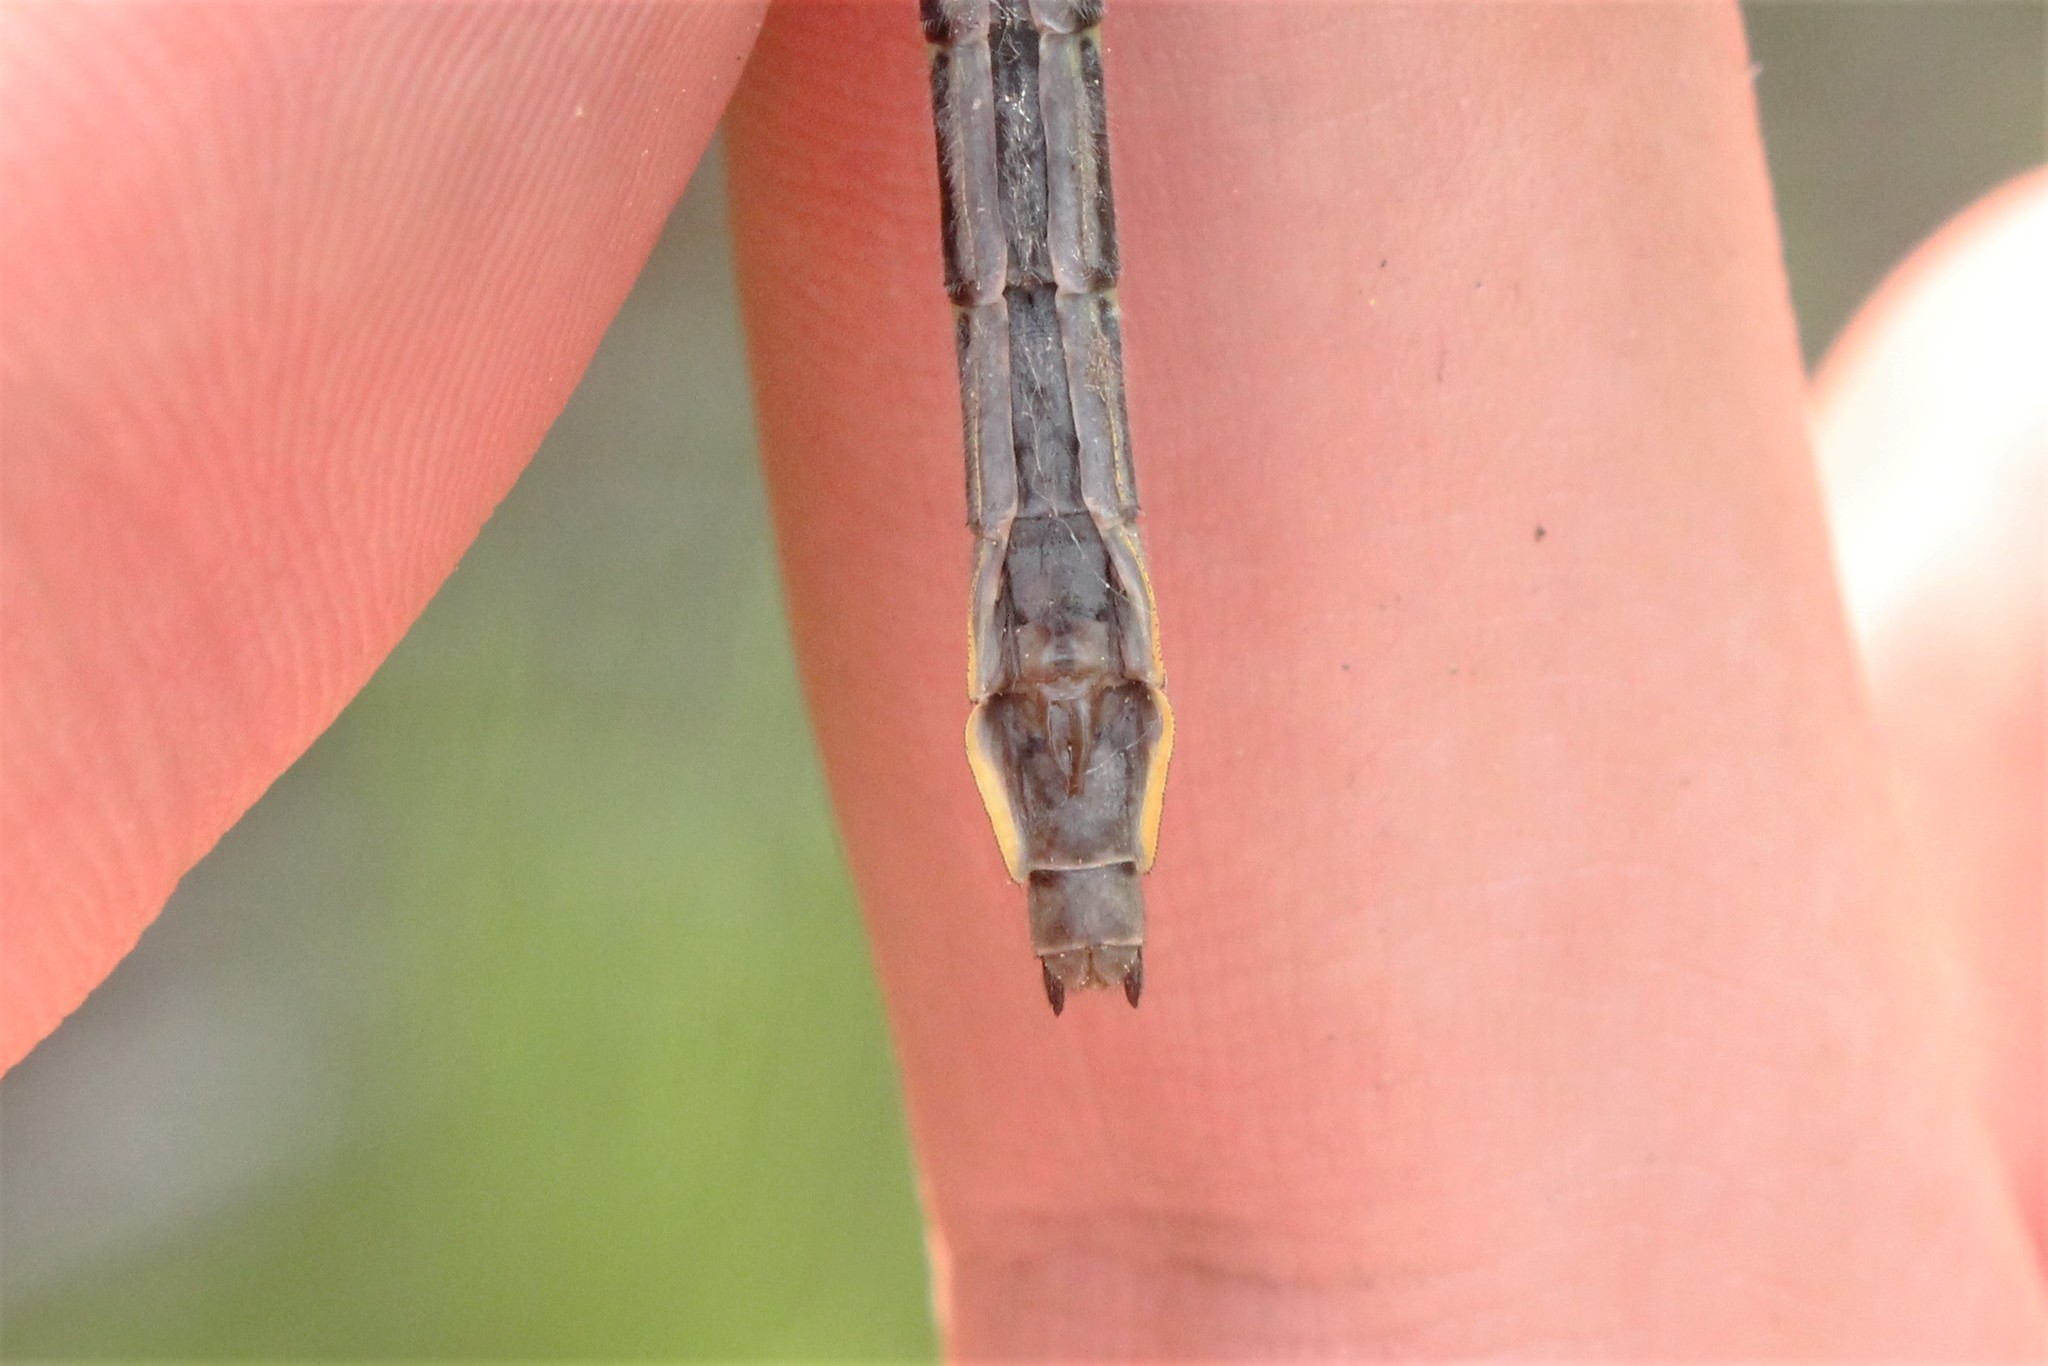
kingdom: Animalia
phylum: Arthropoda
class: Insecta
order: Odonata
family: Gomphidae
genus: Phanogomphus
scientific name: Phanogomphus borealis
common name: Beaverpond clubtail
